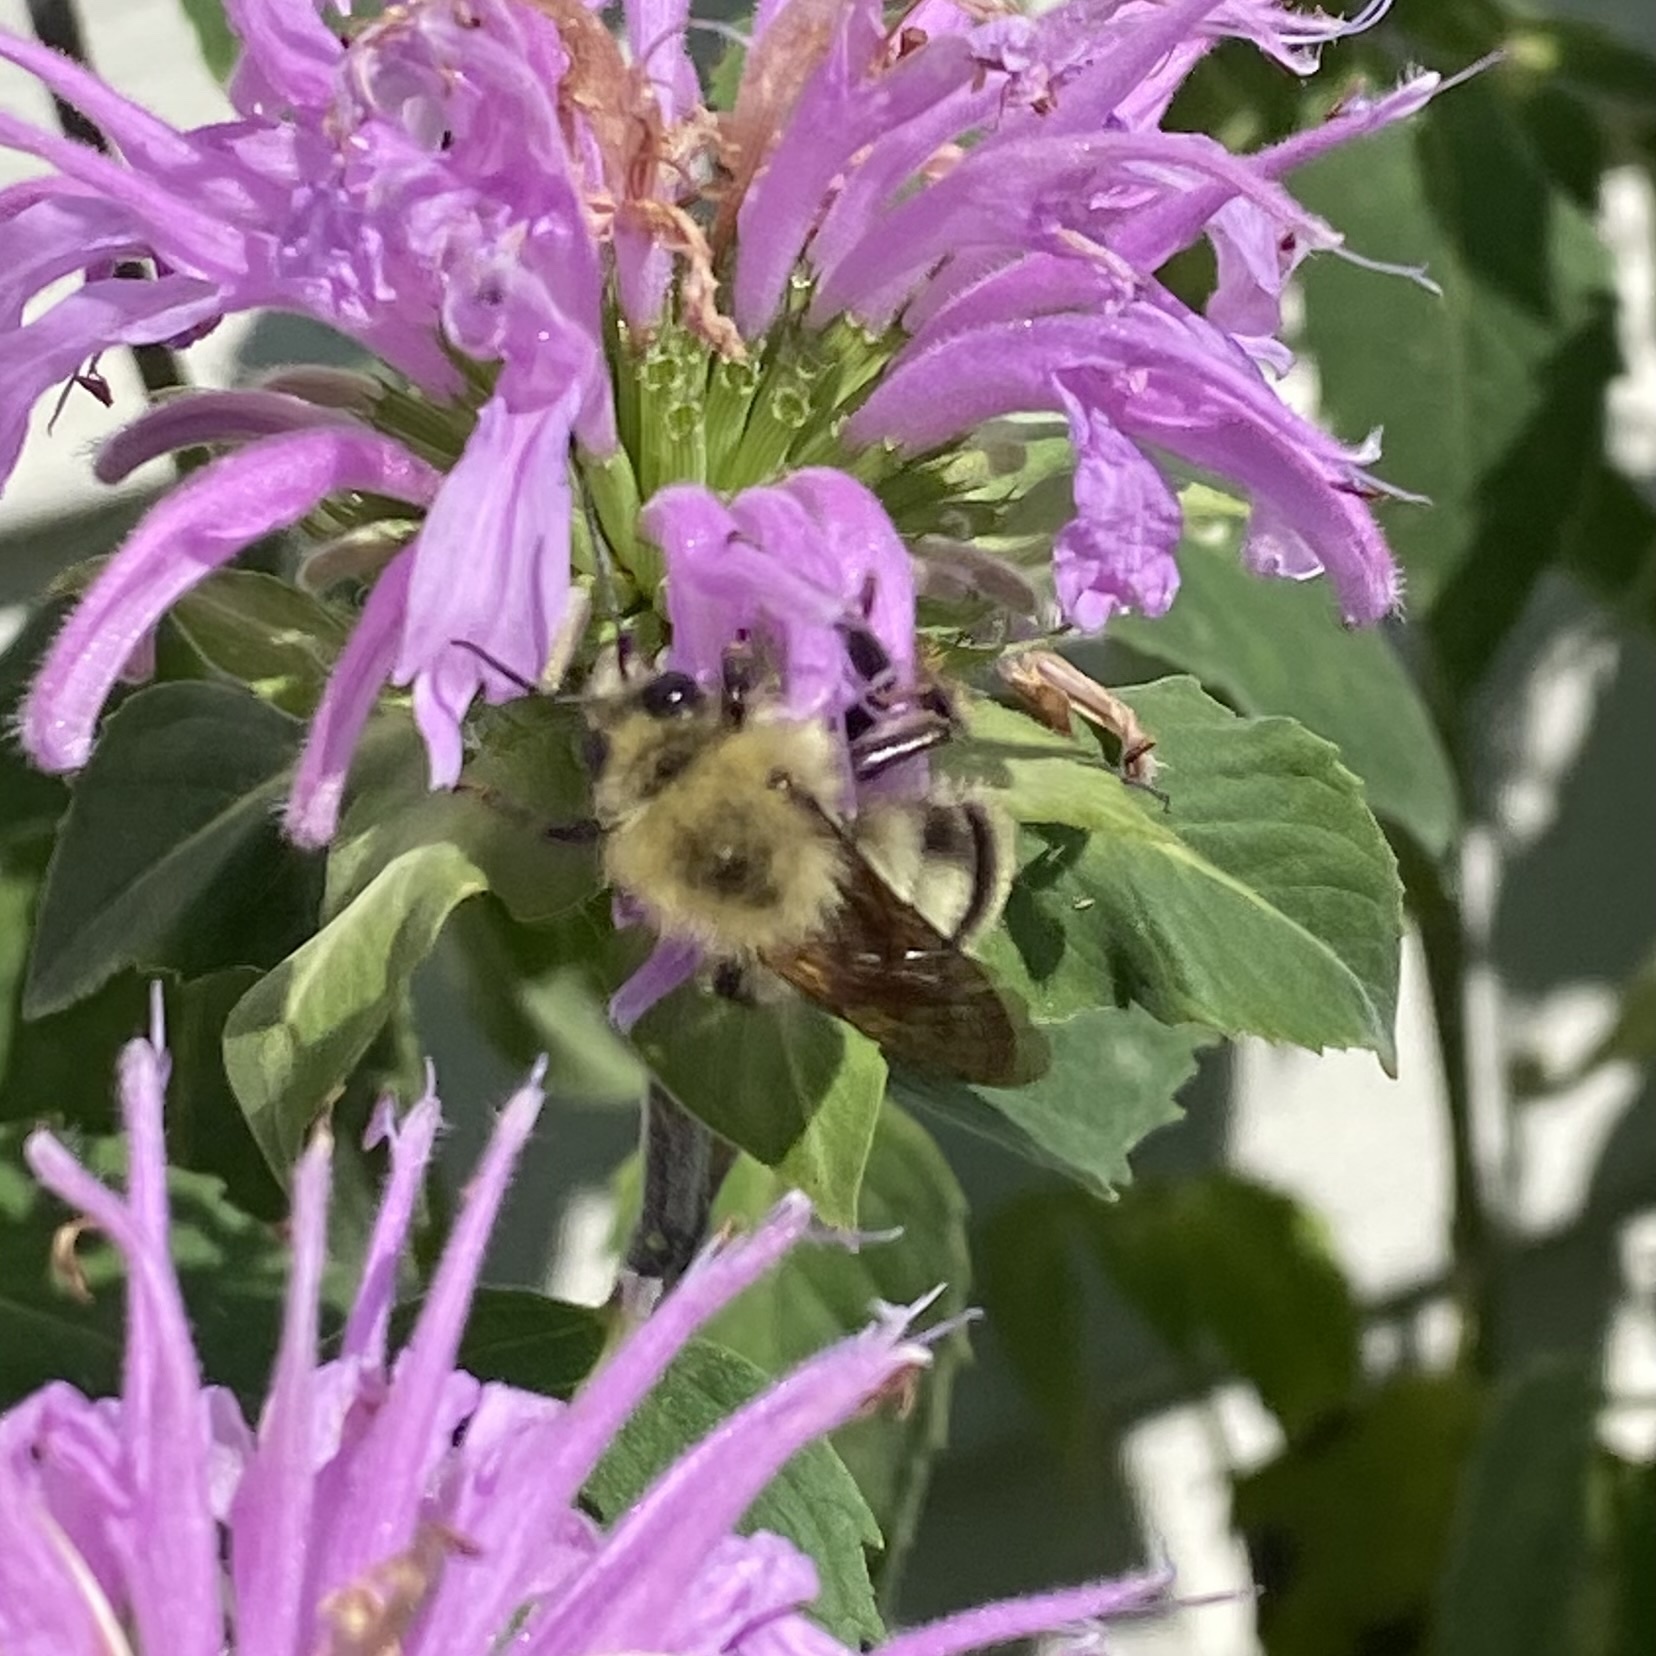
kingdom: Animalia
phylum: Arthropoda
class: Insecta
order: Hymenoptera
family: Apidae
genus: Bombus
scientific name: Bombus bimaculatus
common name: Two-spotted bumble bee
